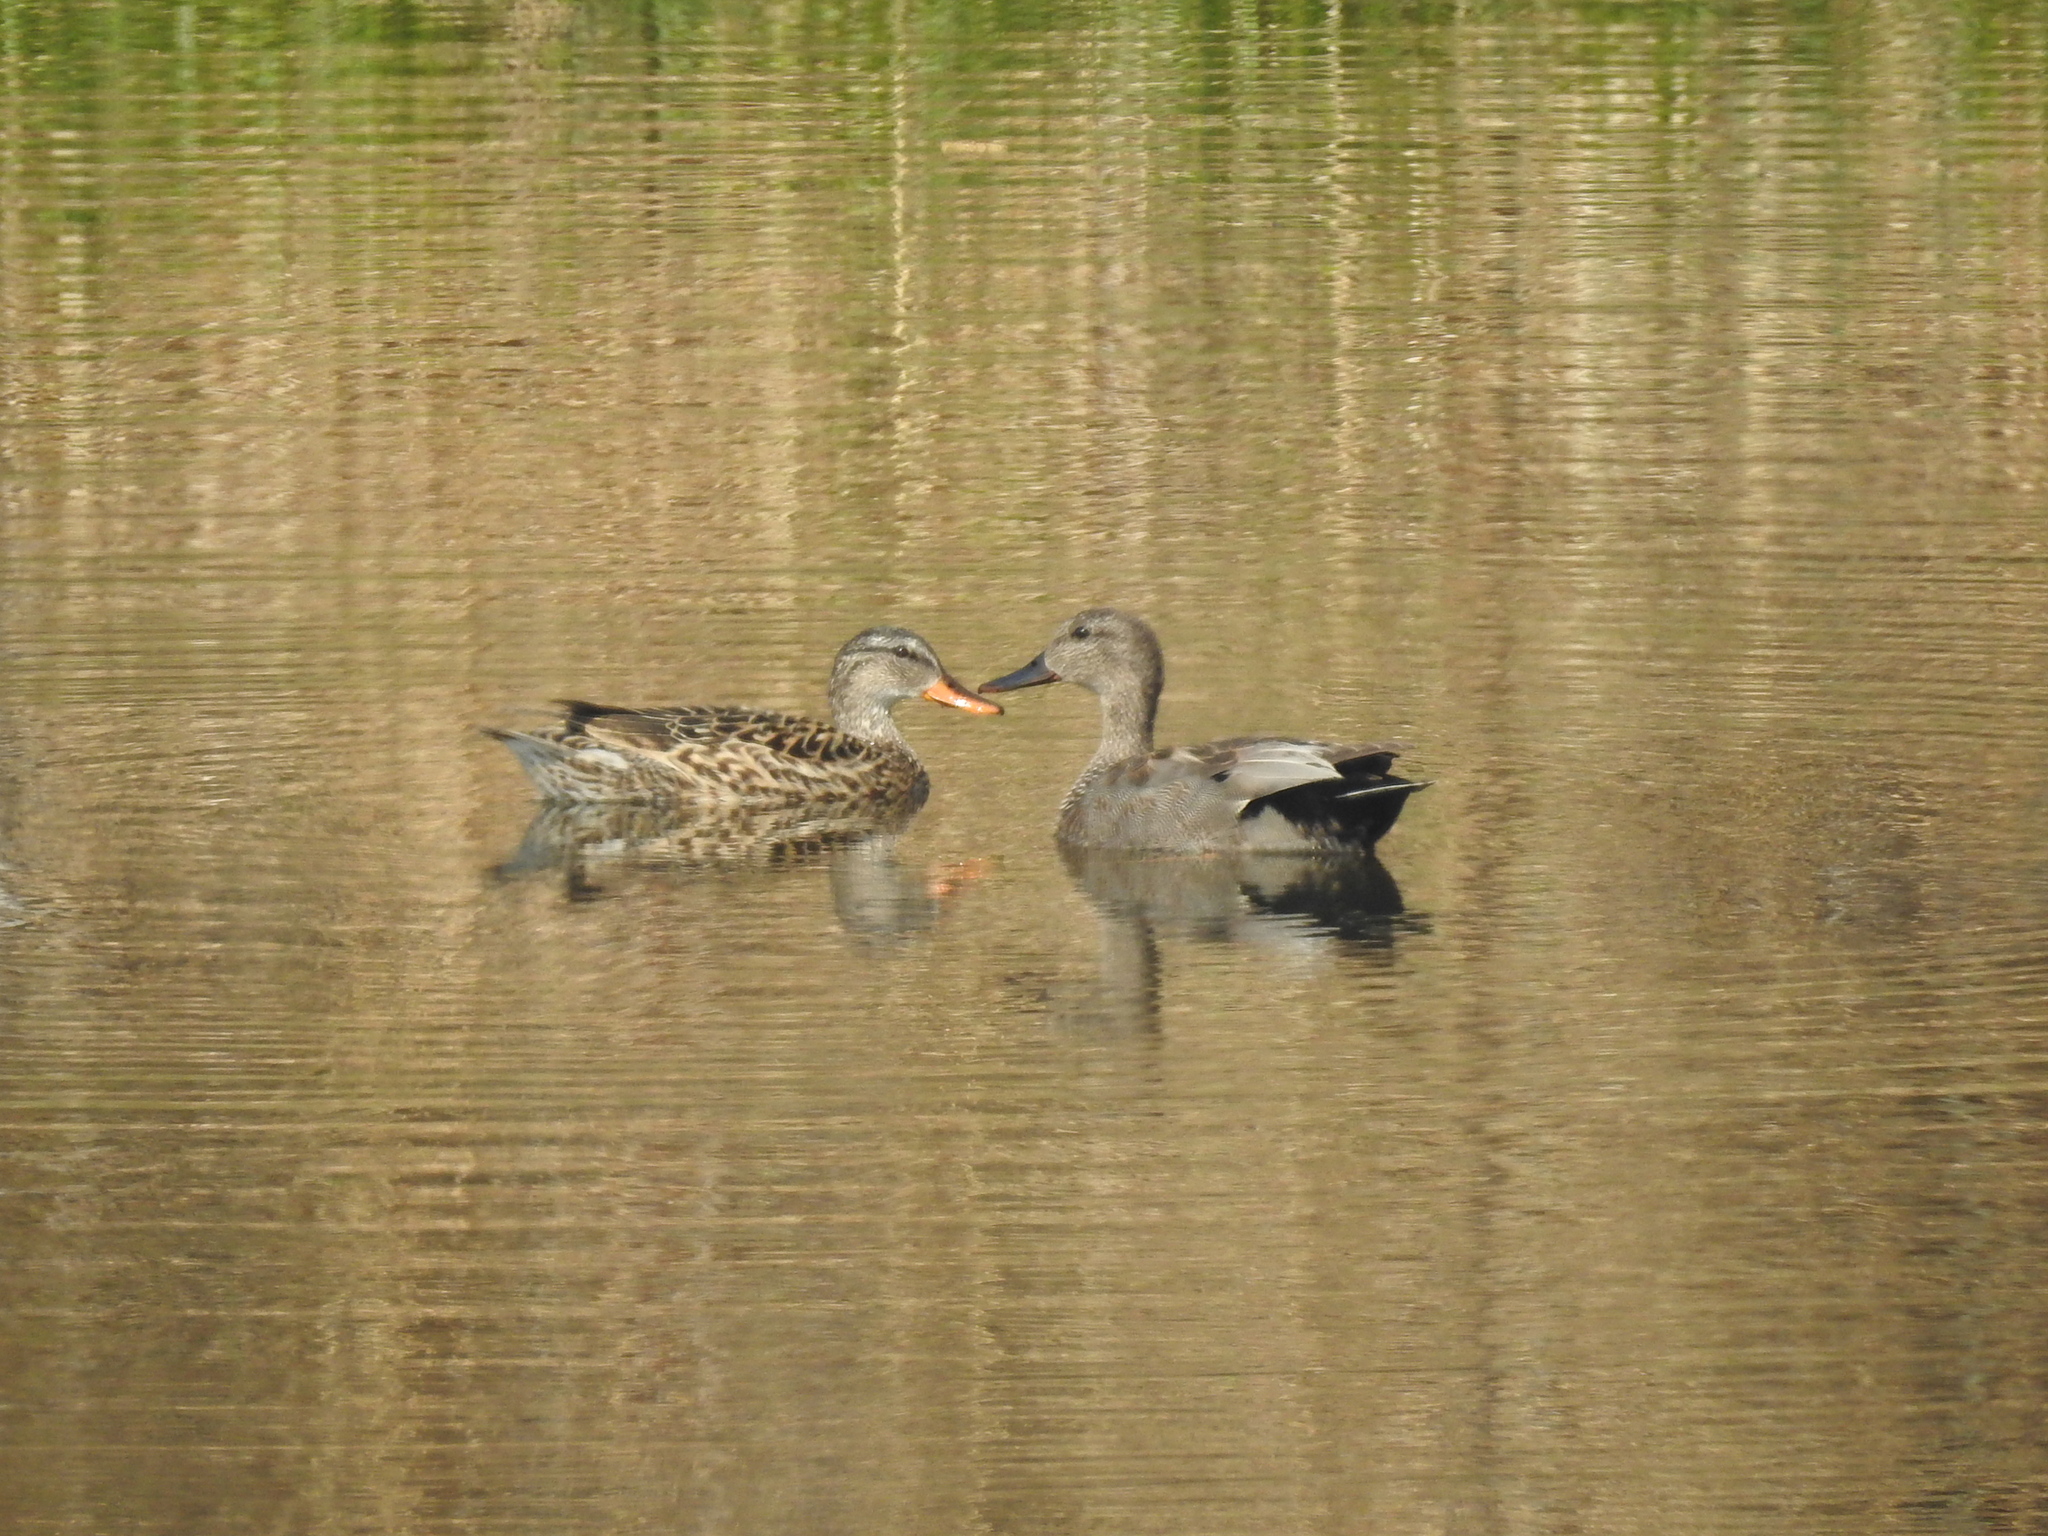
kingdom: Animalia
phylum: Chordata
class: Aves
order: Anseriformes
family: Anatidae
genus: Mareca
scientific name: Mareca strepera
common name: Gadwall
